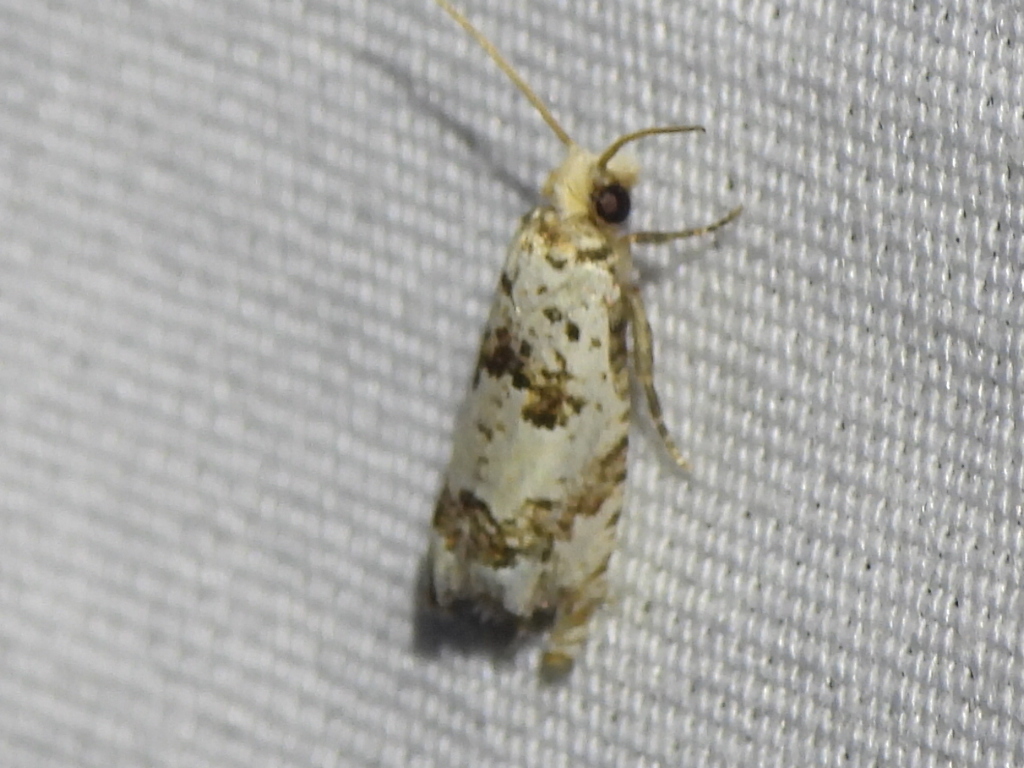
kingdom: Animalia
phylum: Arthropoda
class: Insecta
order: Lepidoptera
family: Tortricidae
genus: Pelochrista
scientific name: Pelochrista matutina
